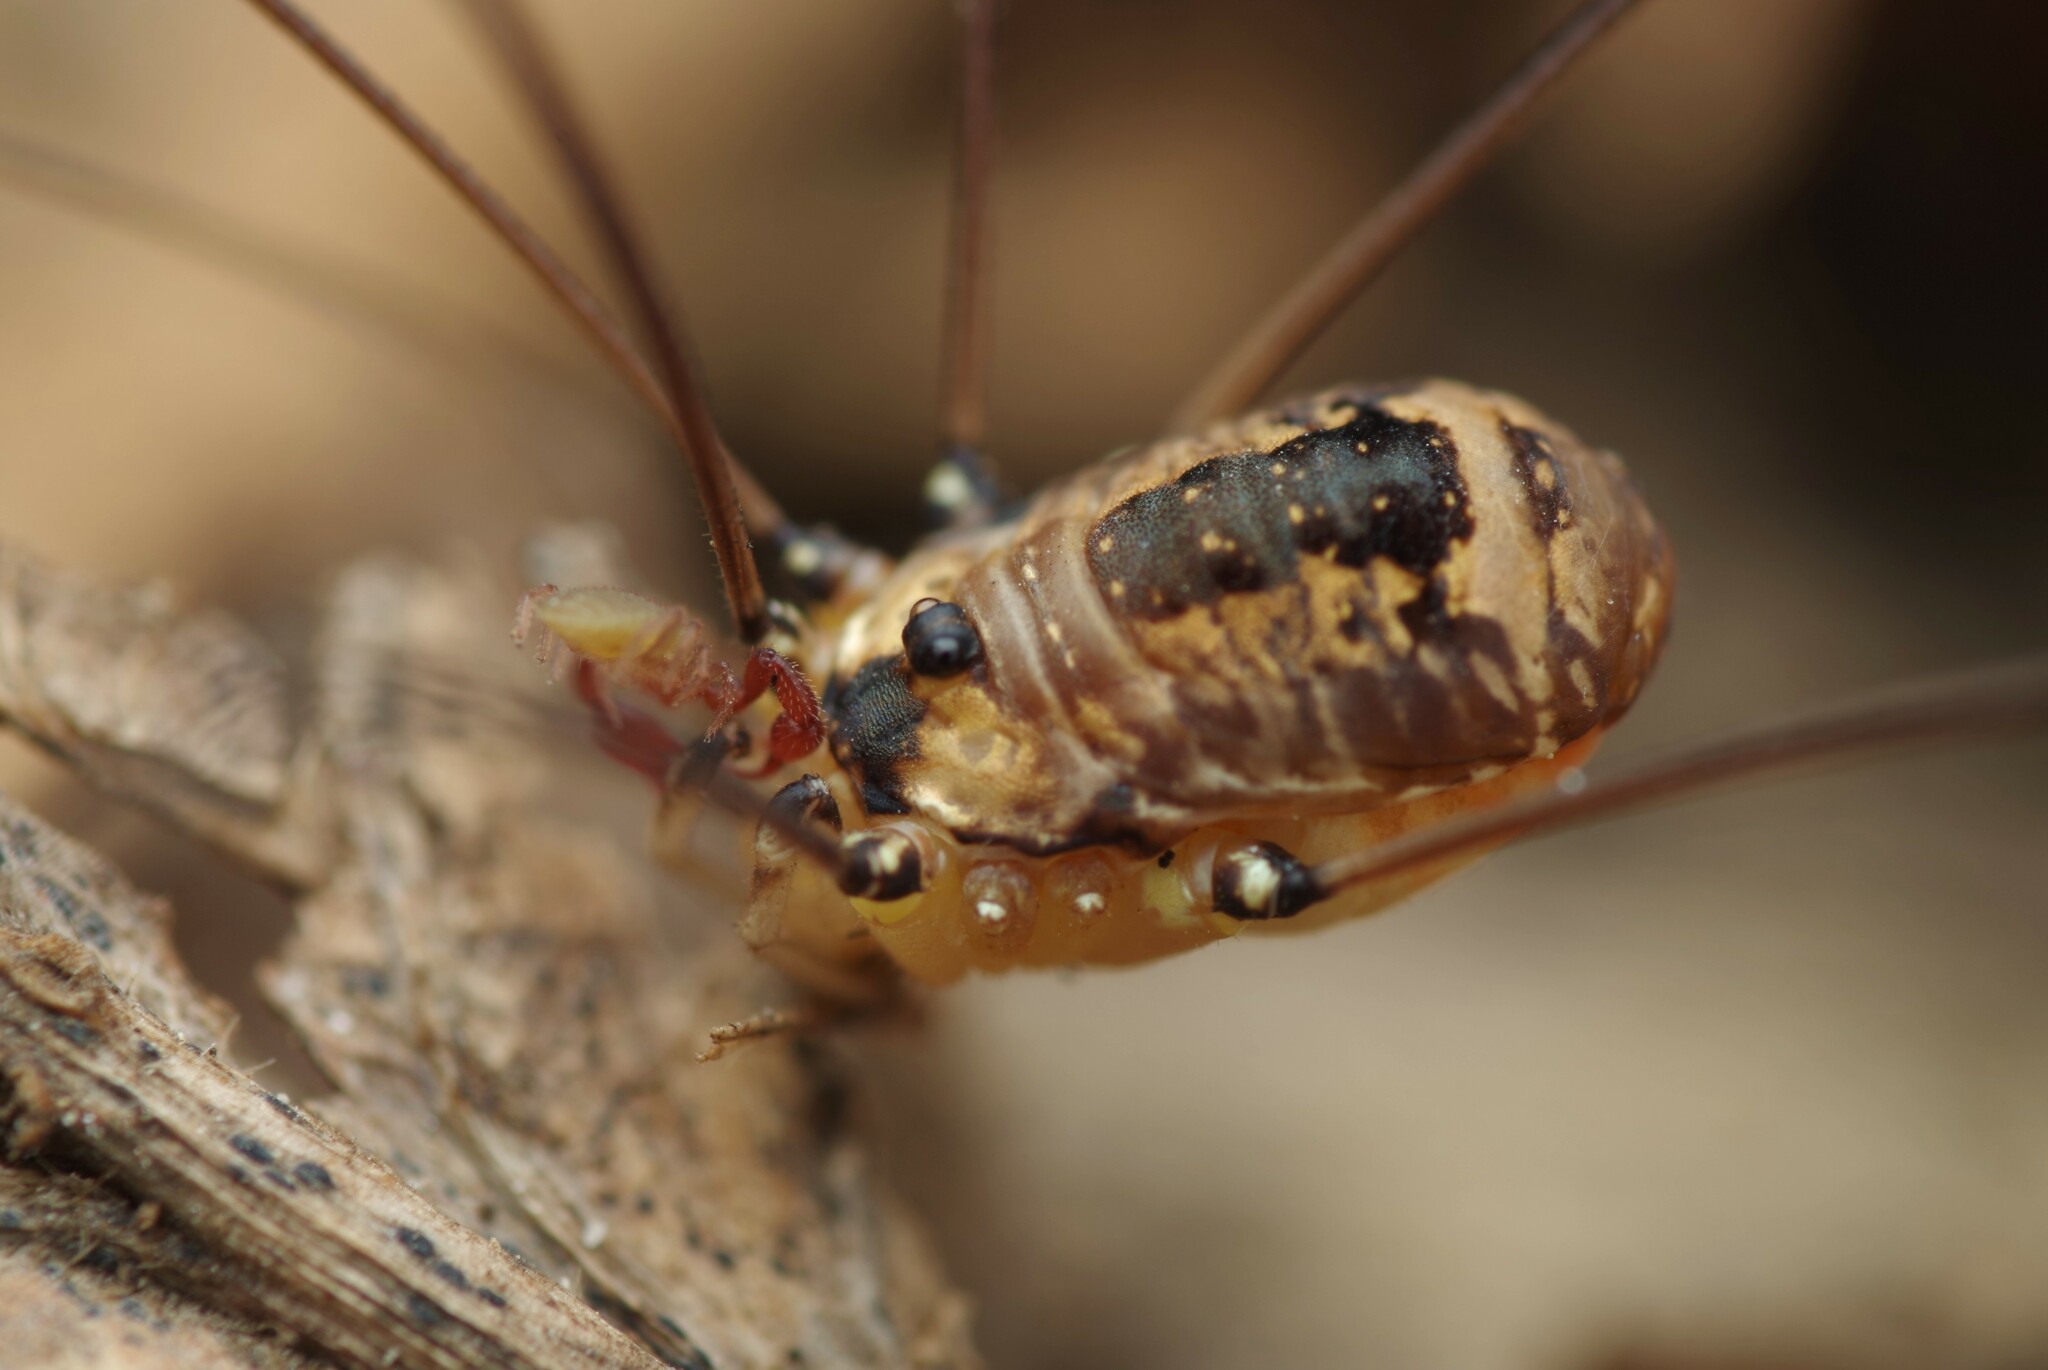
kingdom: Animalia
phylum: Arthropoda
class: Arachnida
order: Opiliones
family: Sclerosomatidae
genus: Leiobunum
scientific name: Leiobunum rotundum
